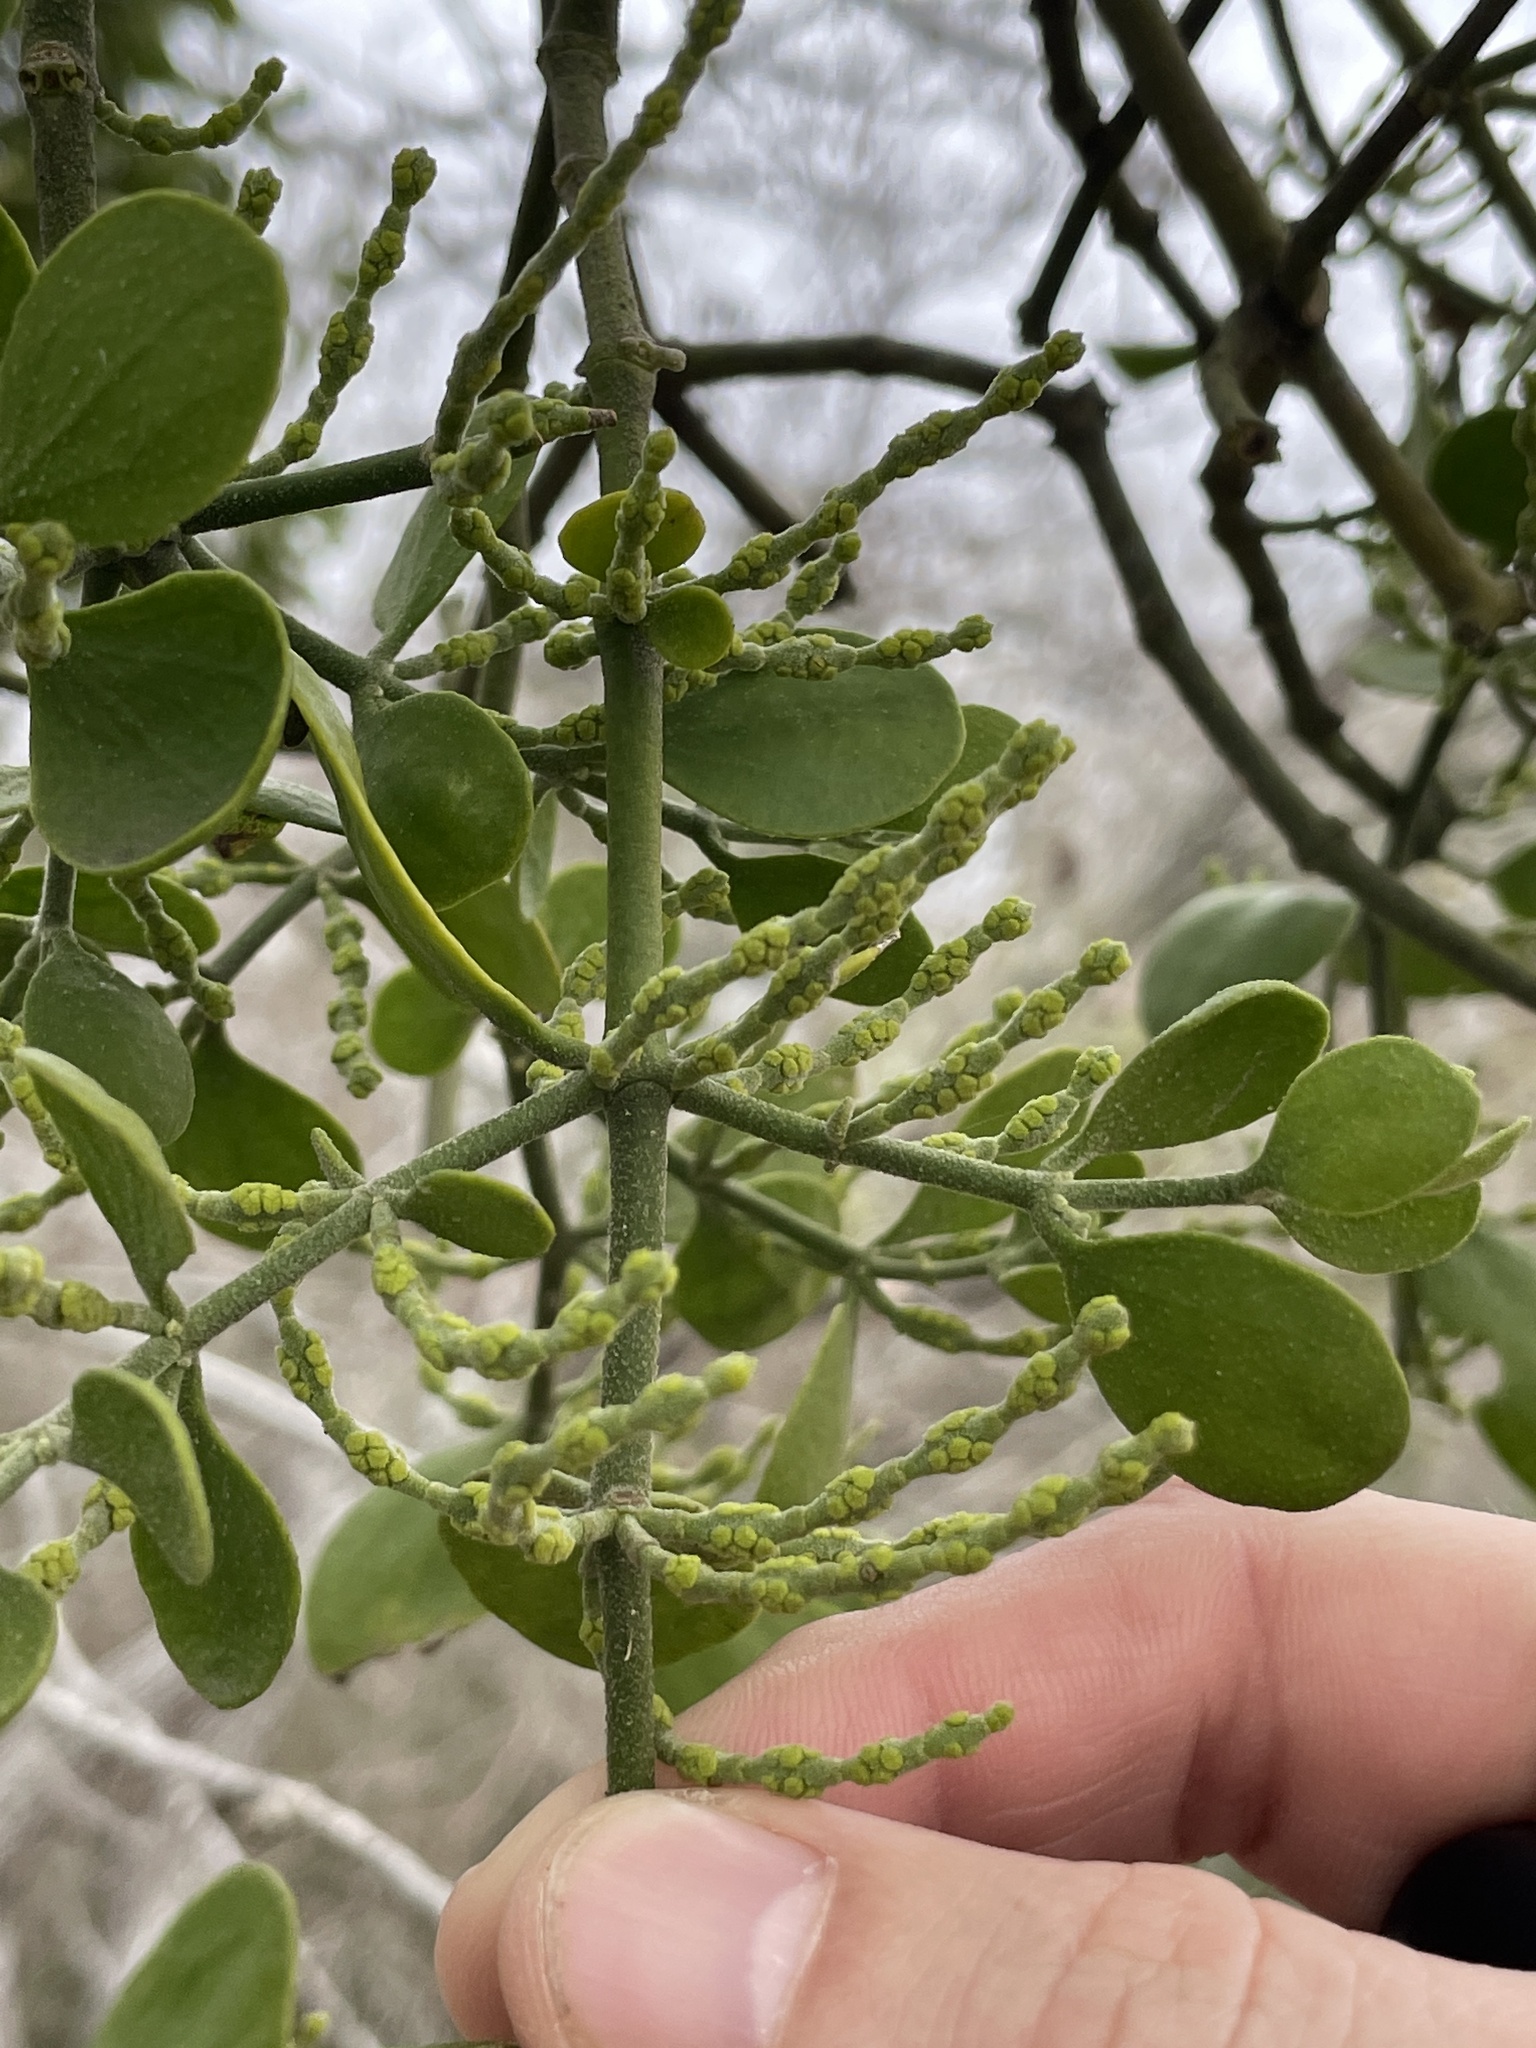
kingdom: Plantae
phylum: Tracheophyta
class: Magnoliopsida
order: Santalales
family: Viscaceae
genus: Phoradendron
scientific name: Phoradendron leucarpum
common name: Pacific mistletoe
